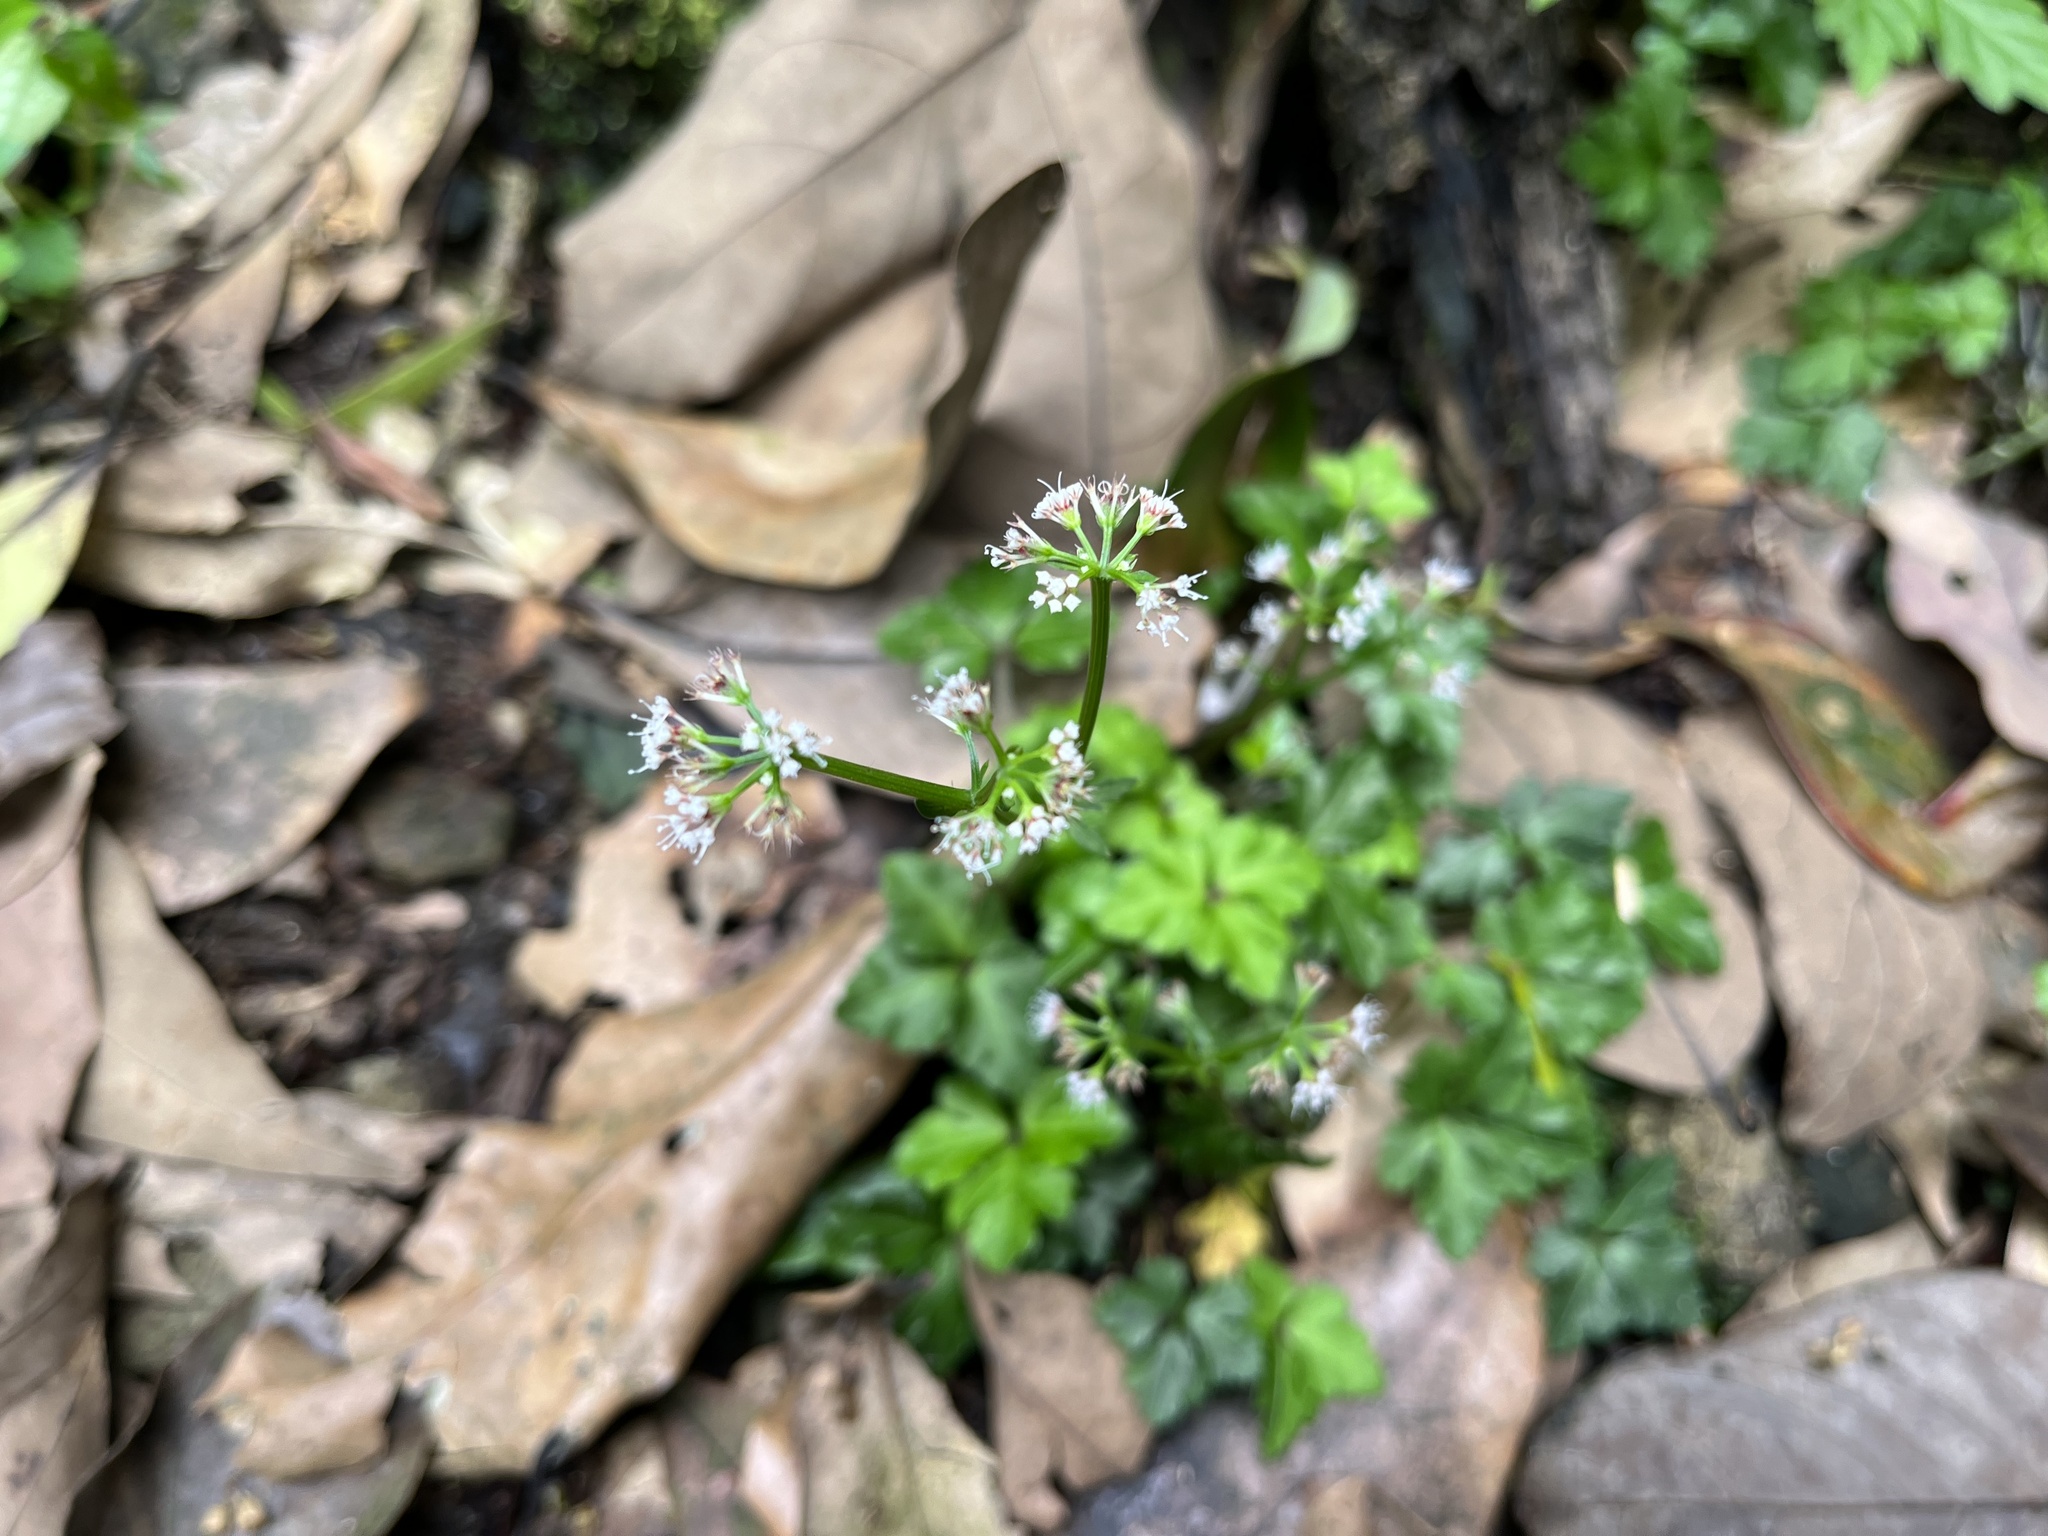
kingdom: Plantae
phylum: Tracheophyta
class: Magnoliopsida
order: Apiales
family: Apiaceae
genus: Sanicula
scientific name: Sanicula lamelligera
